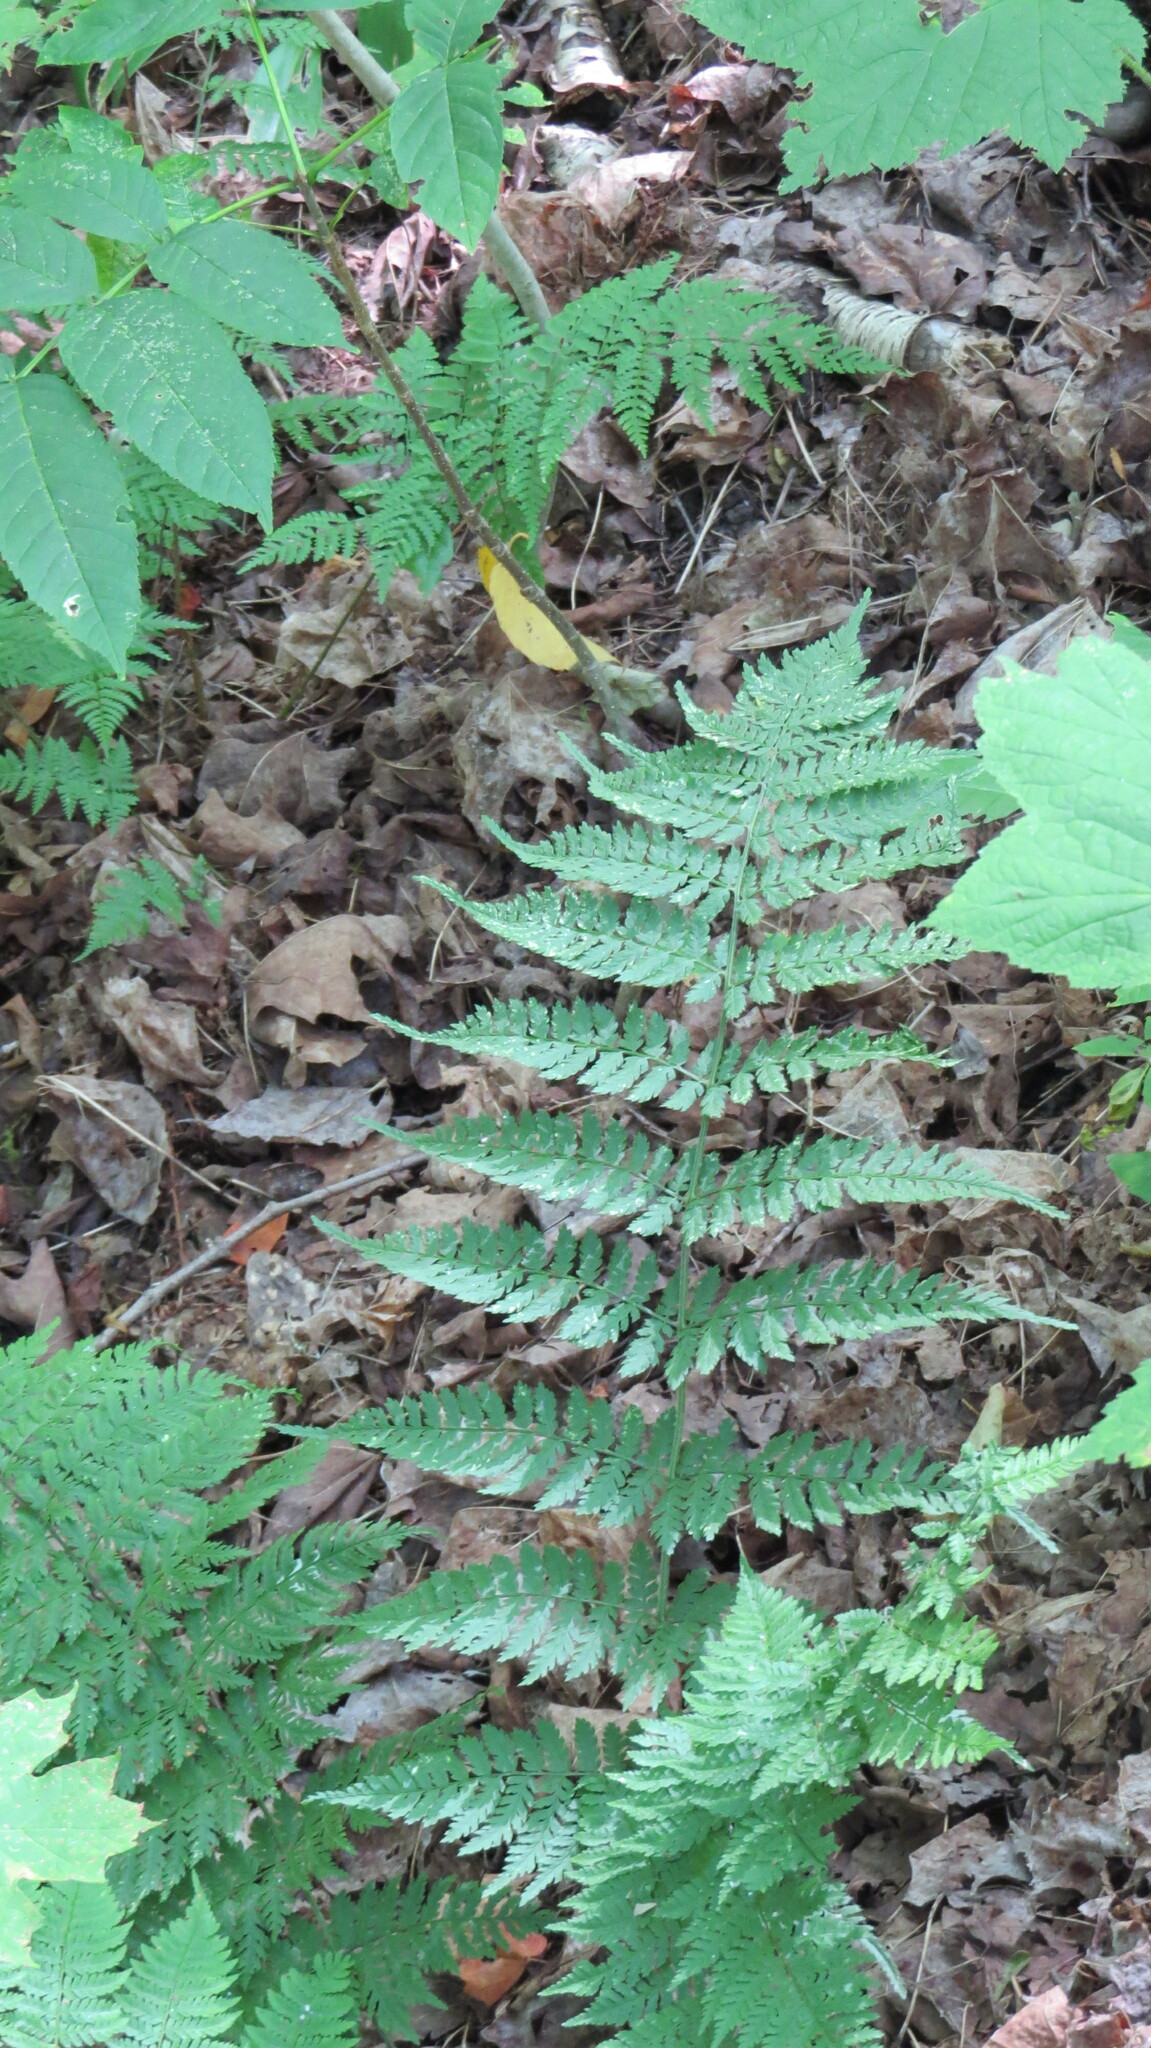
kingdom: Plantae
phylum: Tracheophyta
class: Polypodiopsida
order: Polypodiales
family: Dryopteridaceae
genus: Dryopteris
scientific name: Dryopteris intermedia
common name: Evergreen wood fern
